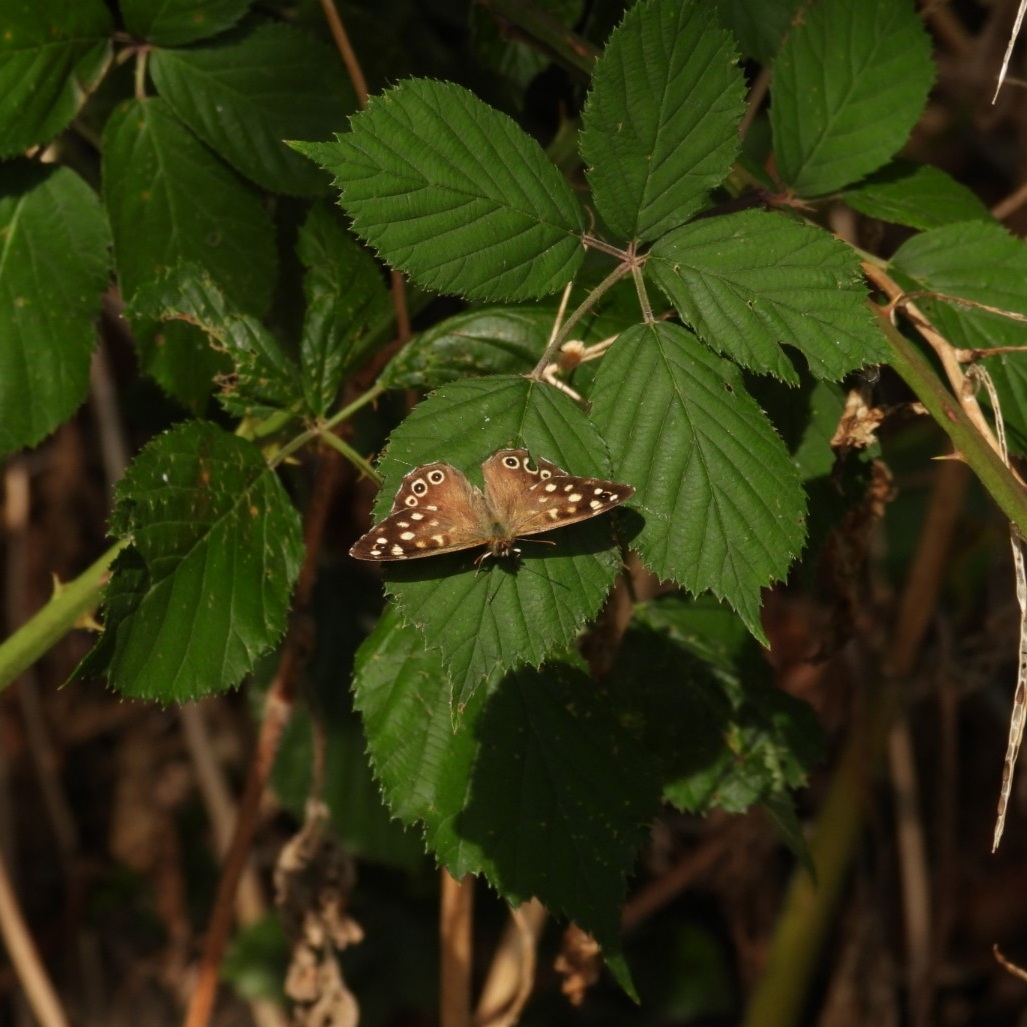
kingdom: Animalia
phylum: Arthropoda
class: Insecta
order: Lepidoptera
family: Nymphalidae
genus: Pararge
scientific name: Pararge aegeria
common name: Speckled wood
